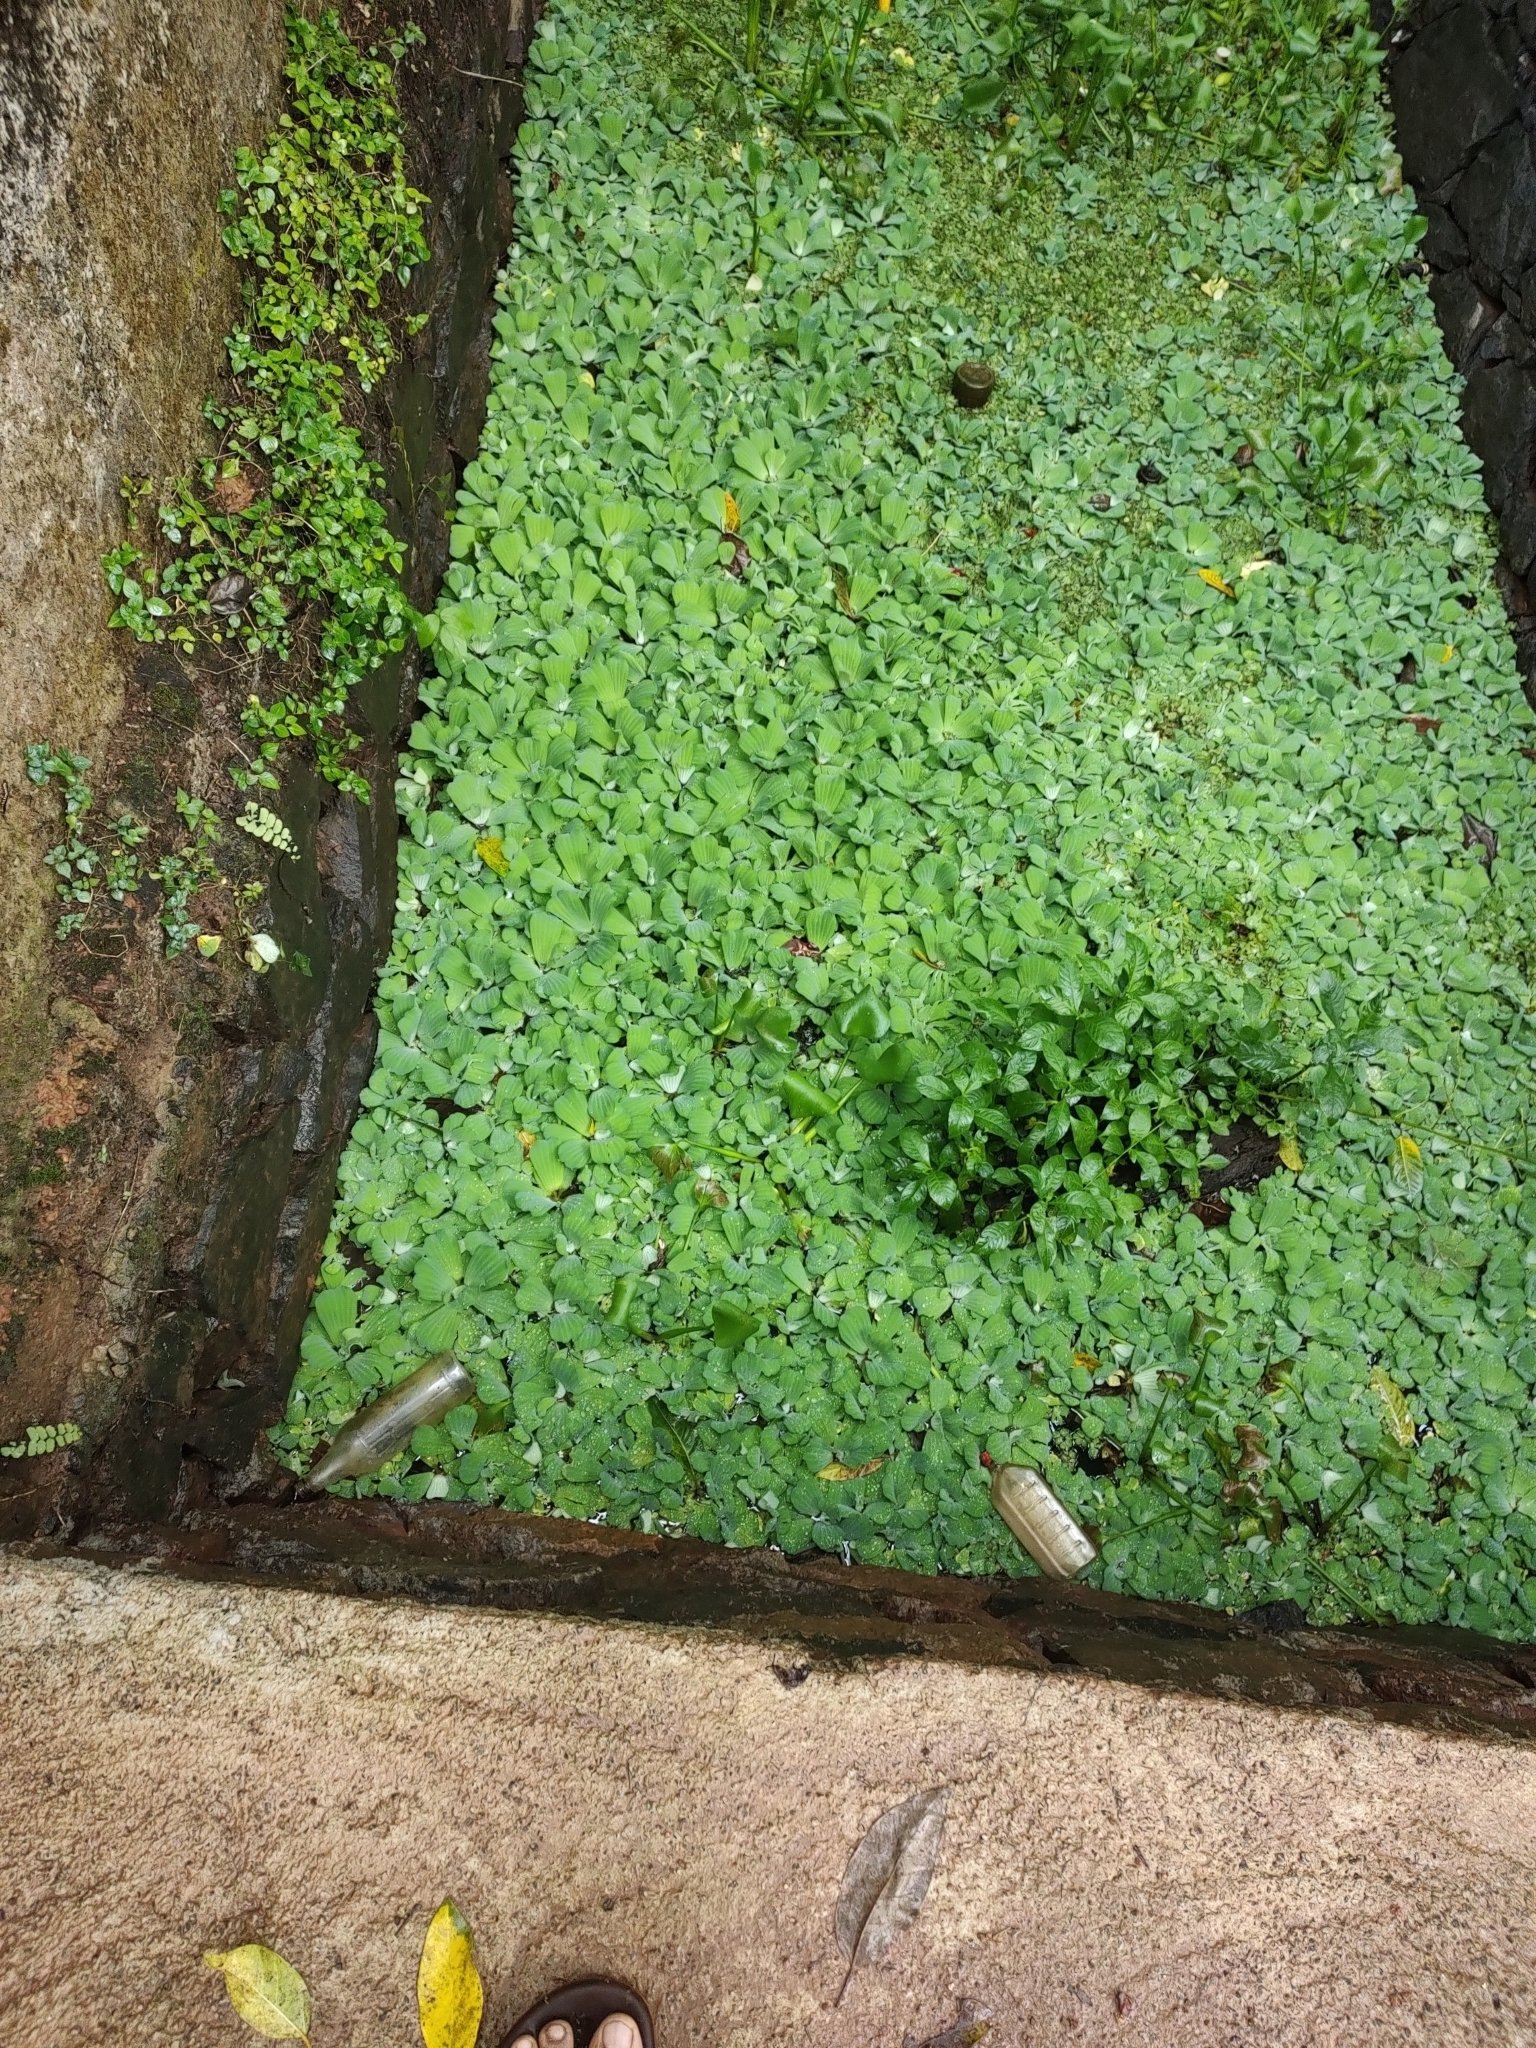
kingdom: Plantae
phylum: Tracheophyta
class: Liliopsida
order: Alismatales
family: Araceae
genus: Pistia
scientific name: Pistia stratiotes
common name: Water lettuce
